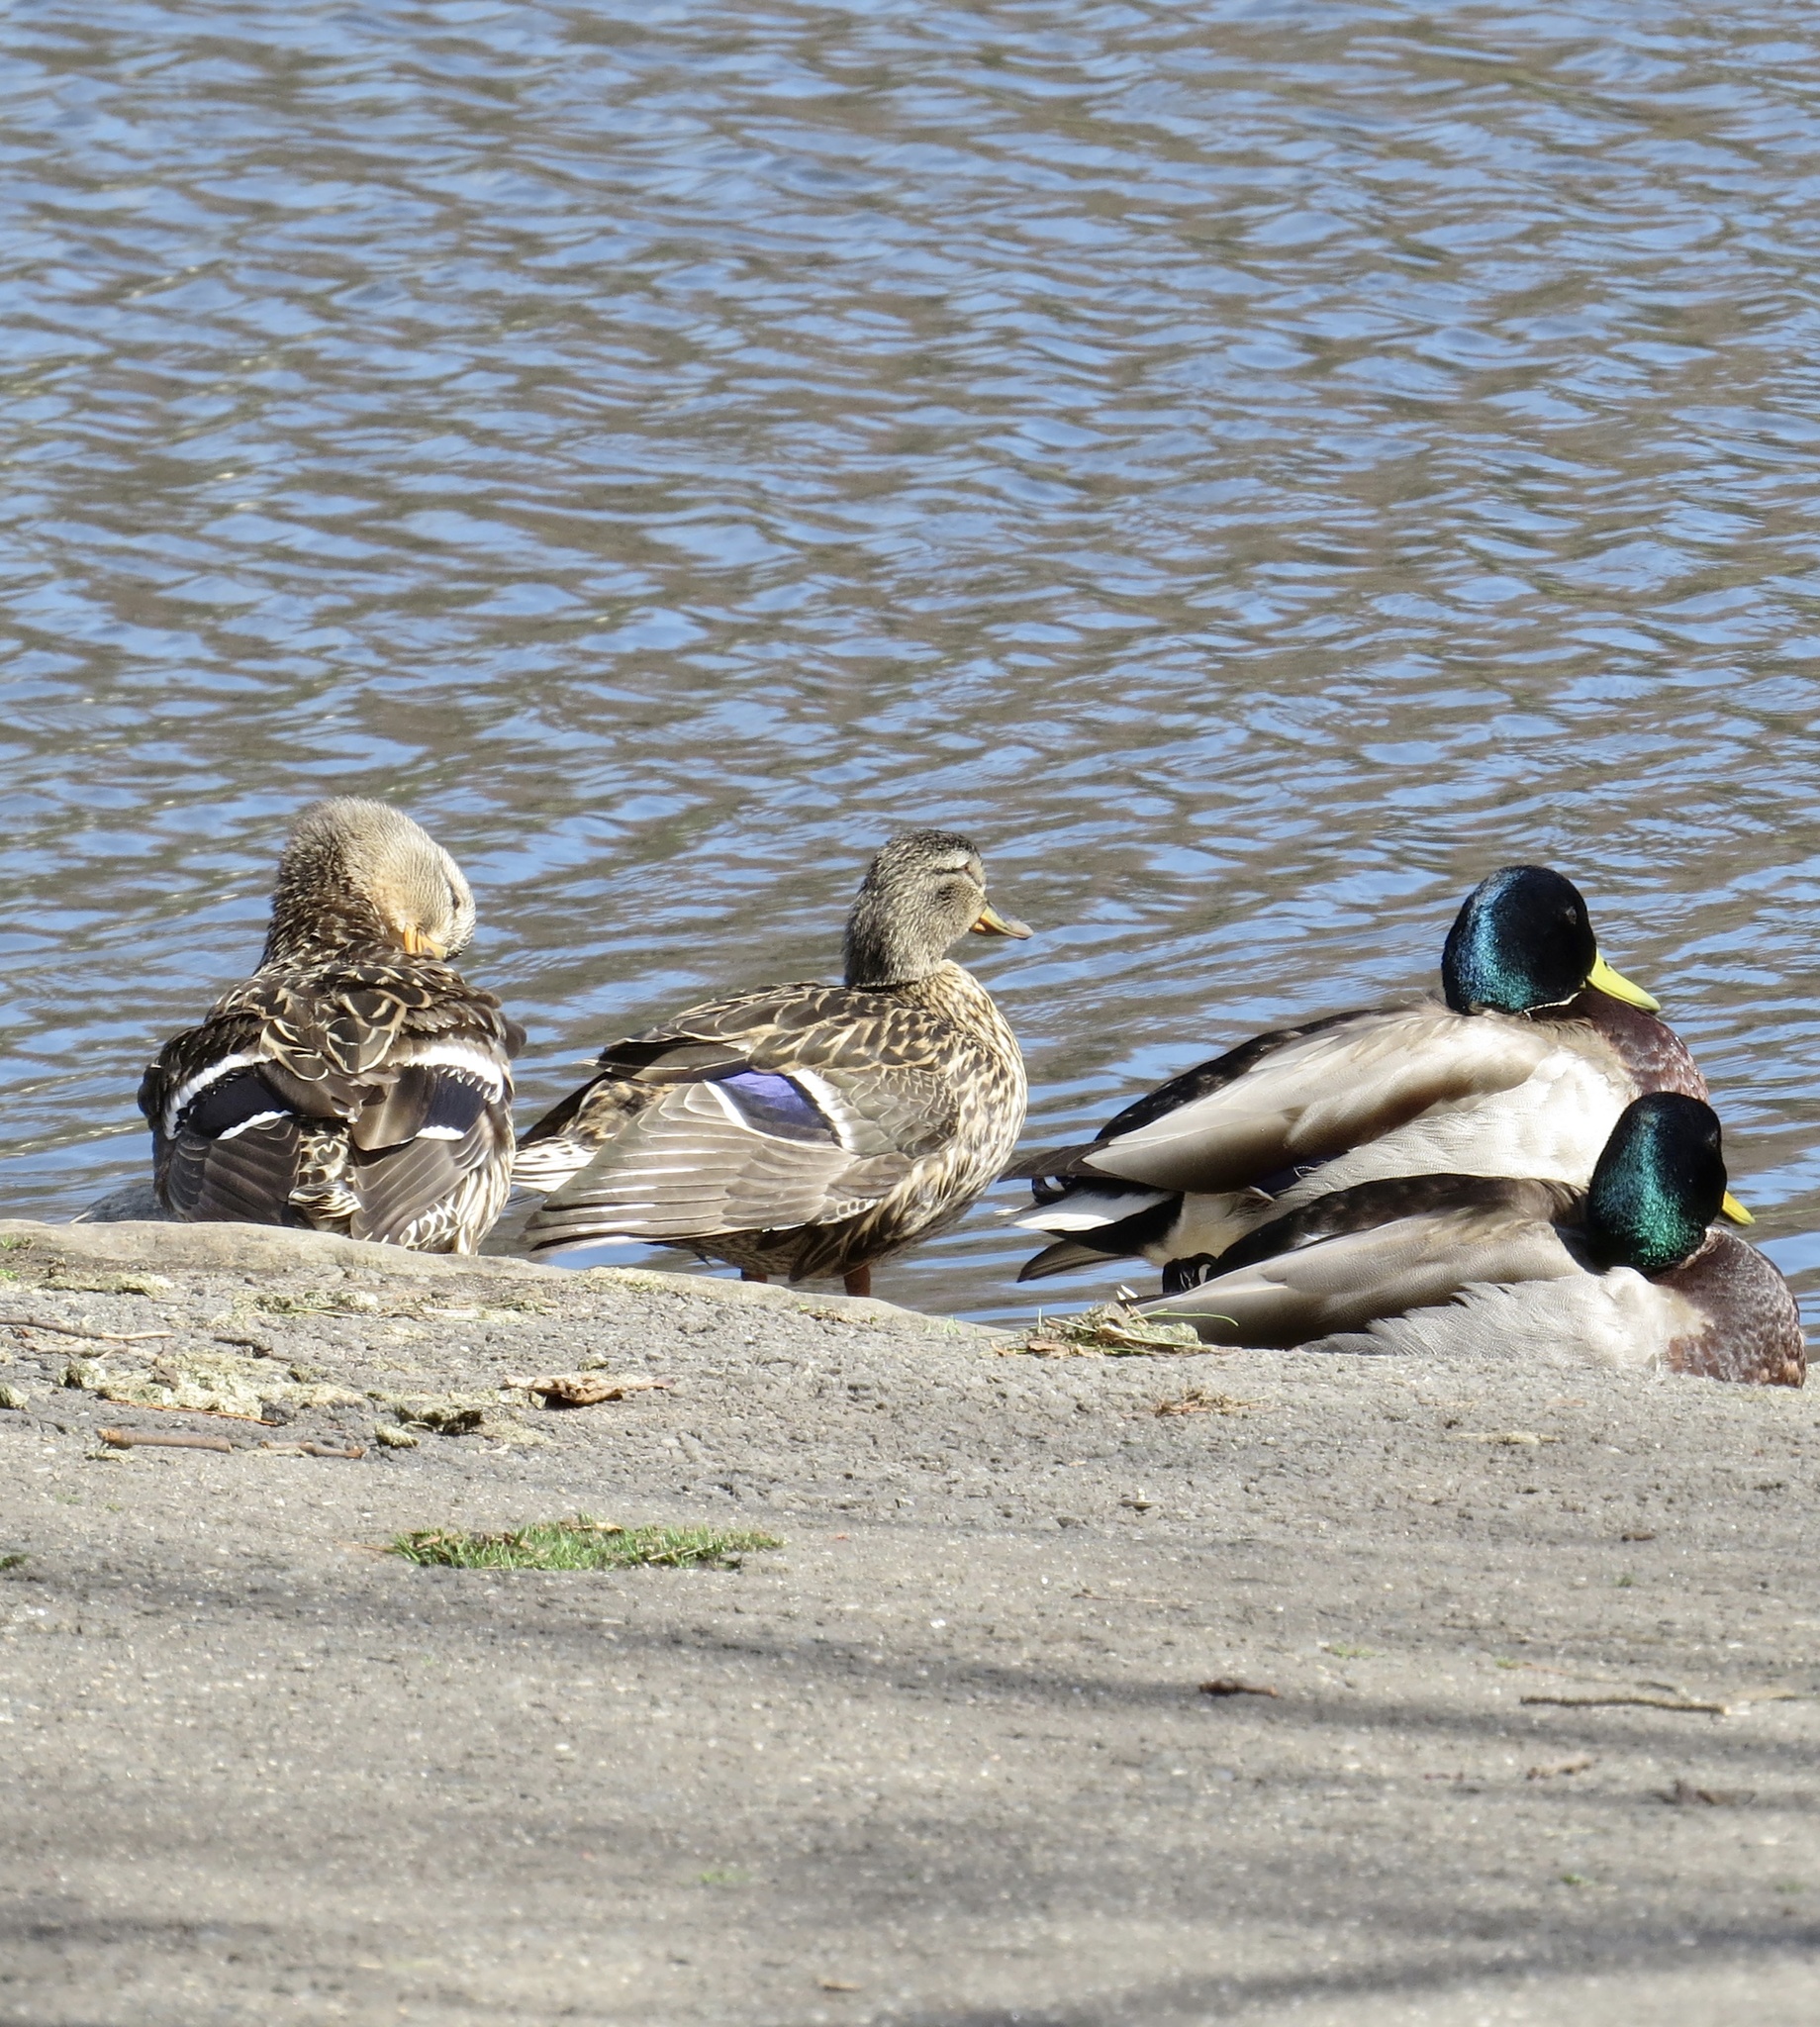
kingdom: Animalia
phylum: Chordata
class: Aves
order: Anseriformes
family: Anatidae
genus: Anas
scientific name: Anas platyrhynchos
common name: Mallard
